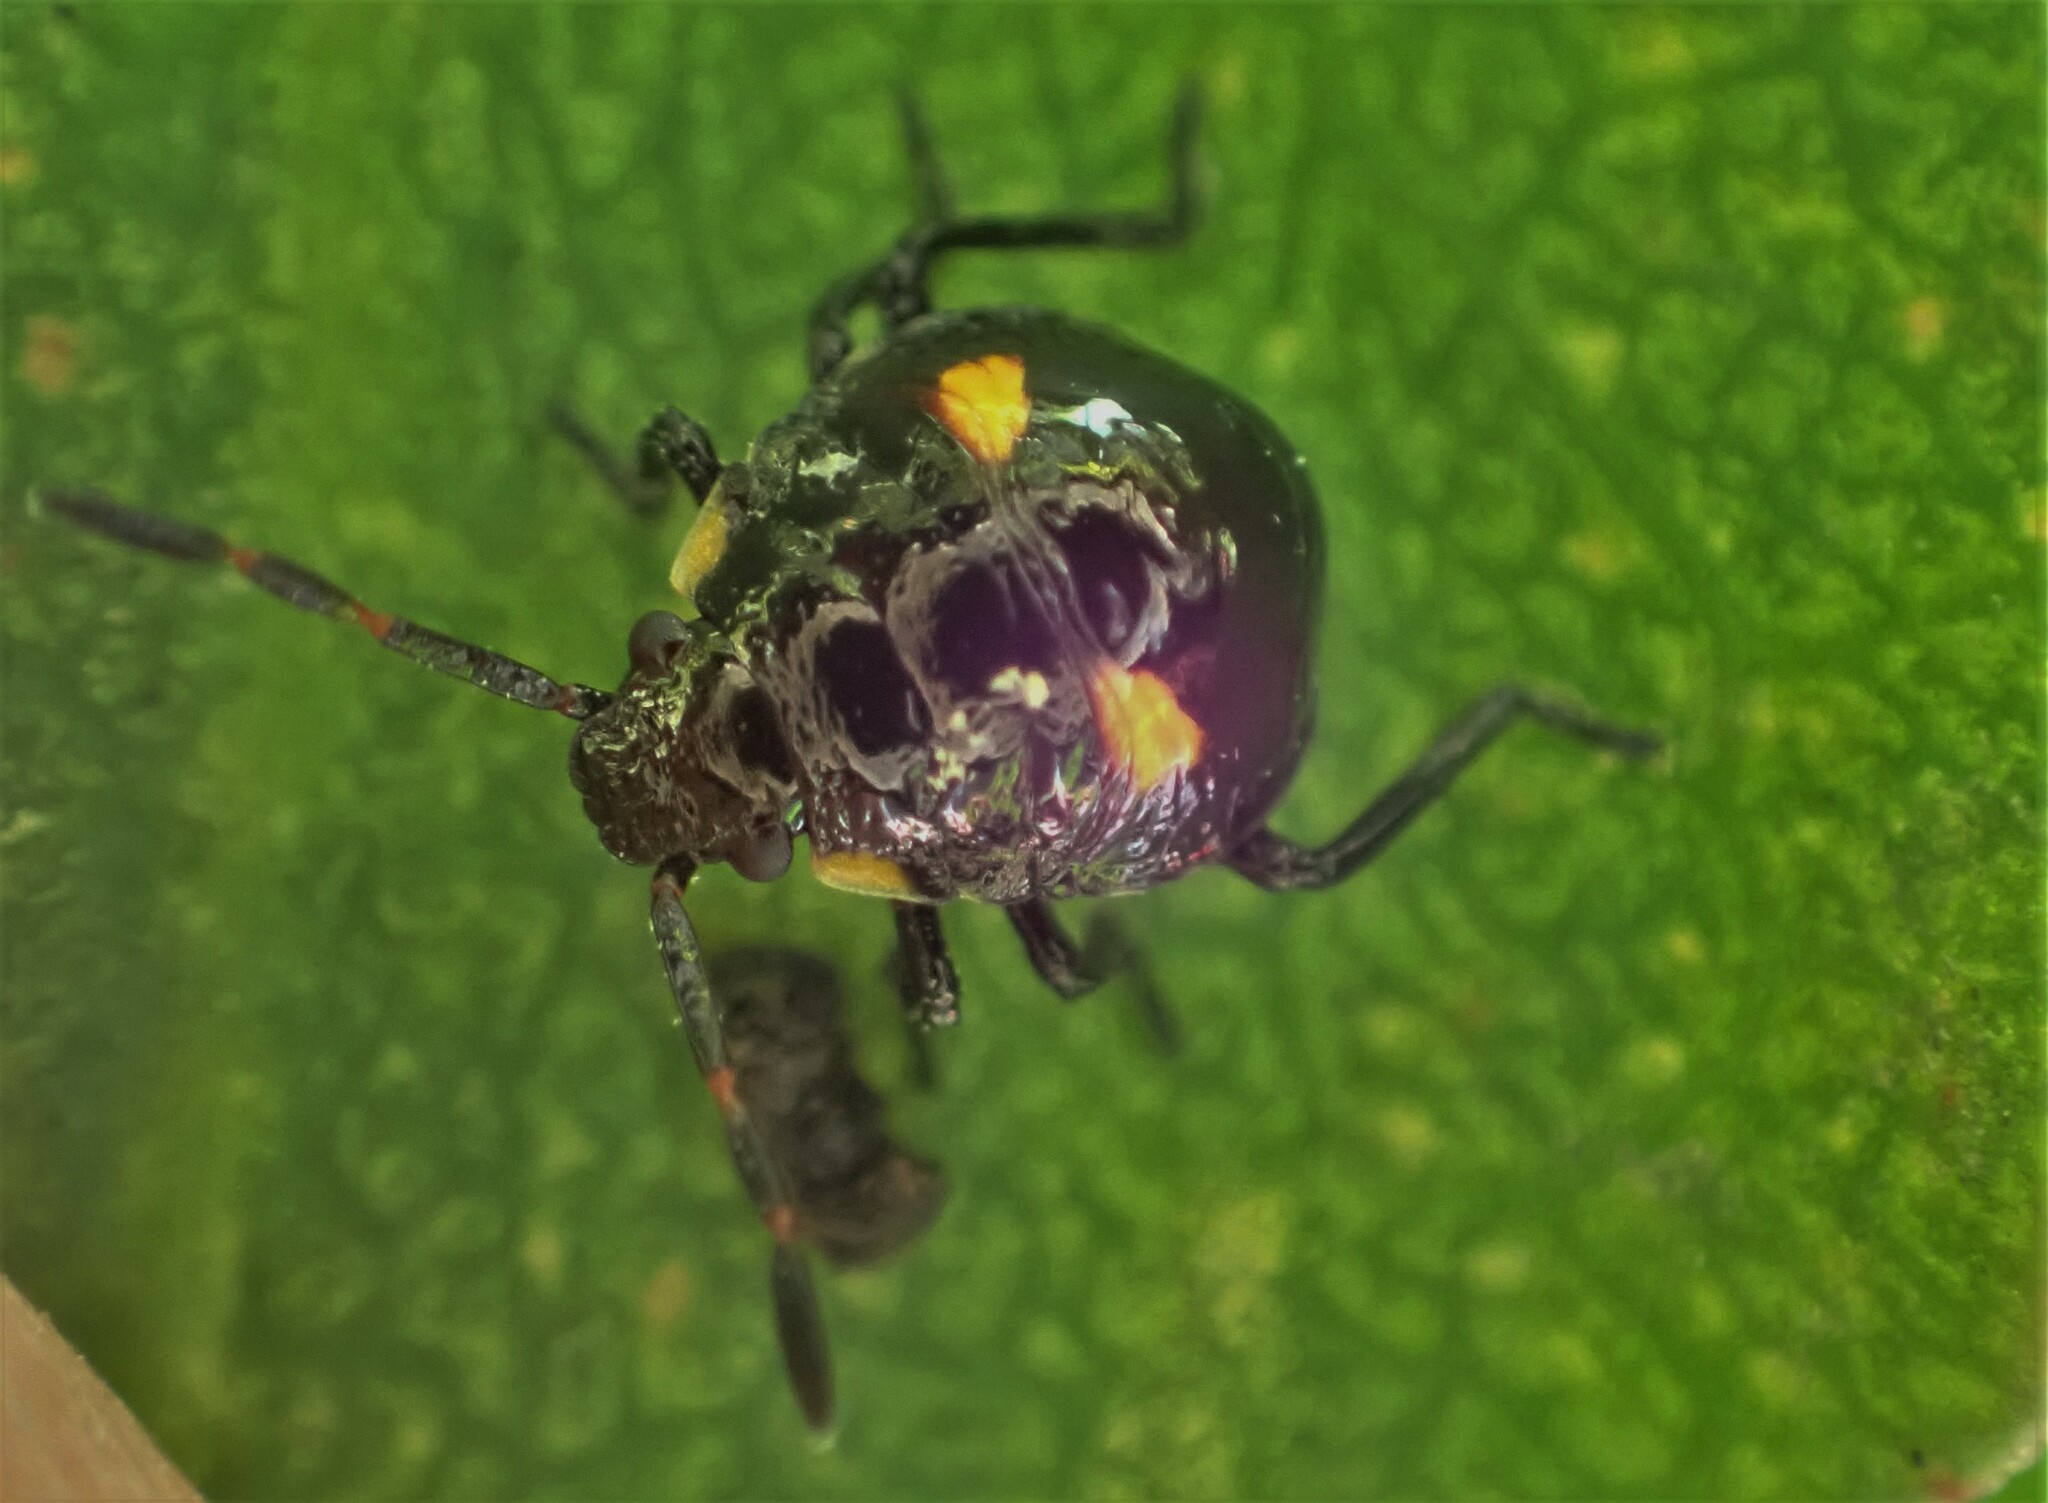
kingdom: Animalia
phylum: Arthropoda
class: Insecta
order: Hemiptera
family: Pentatomidae
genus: Cermatulus
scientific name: Cermatulus nasalis
